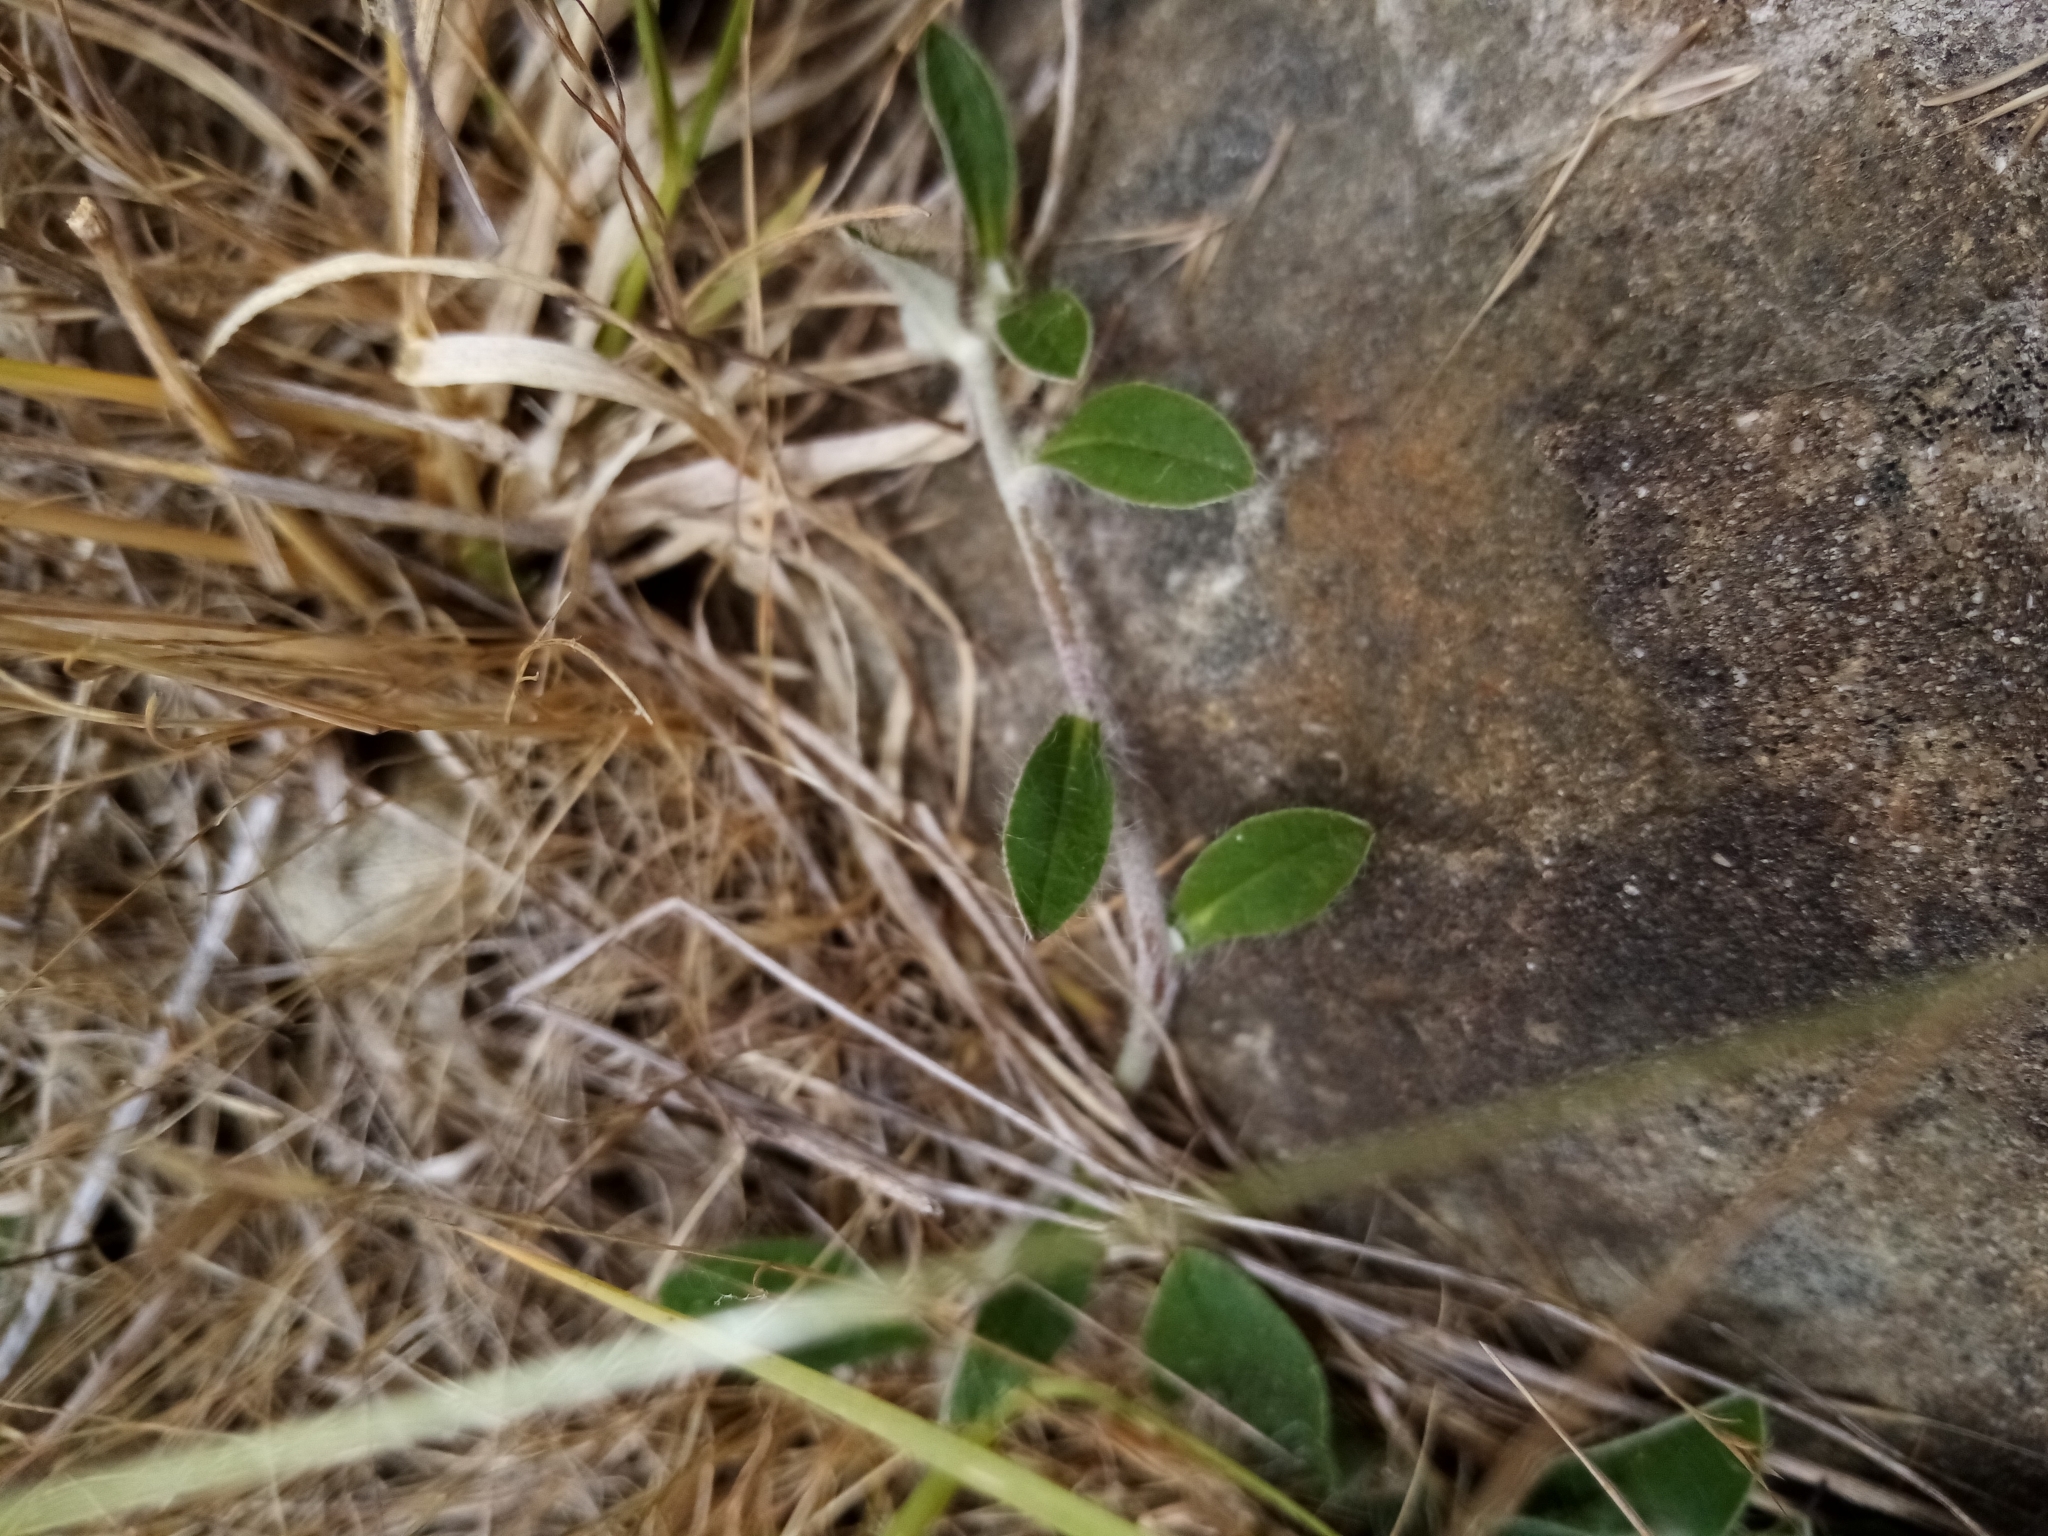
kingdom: Plantae
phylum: Tracheophyta
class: Magnoliopsida
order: Asterales
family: Asteraceae
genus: Pilosella
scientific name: Pilosella officinarum
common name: Mouse-ear hawkweed
